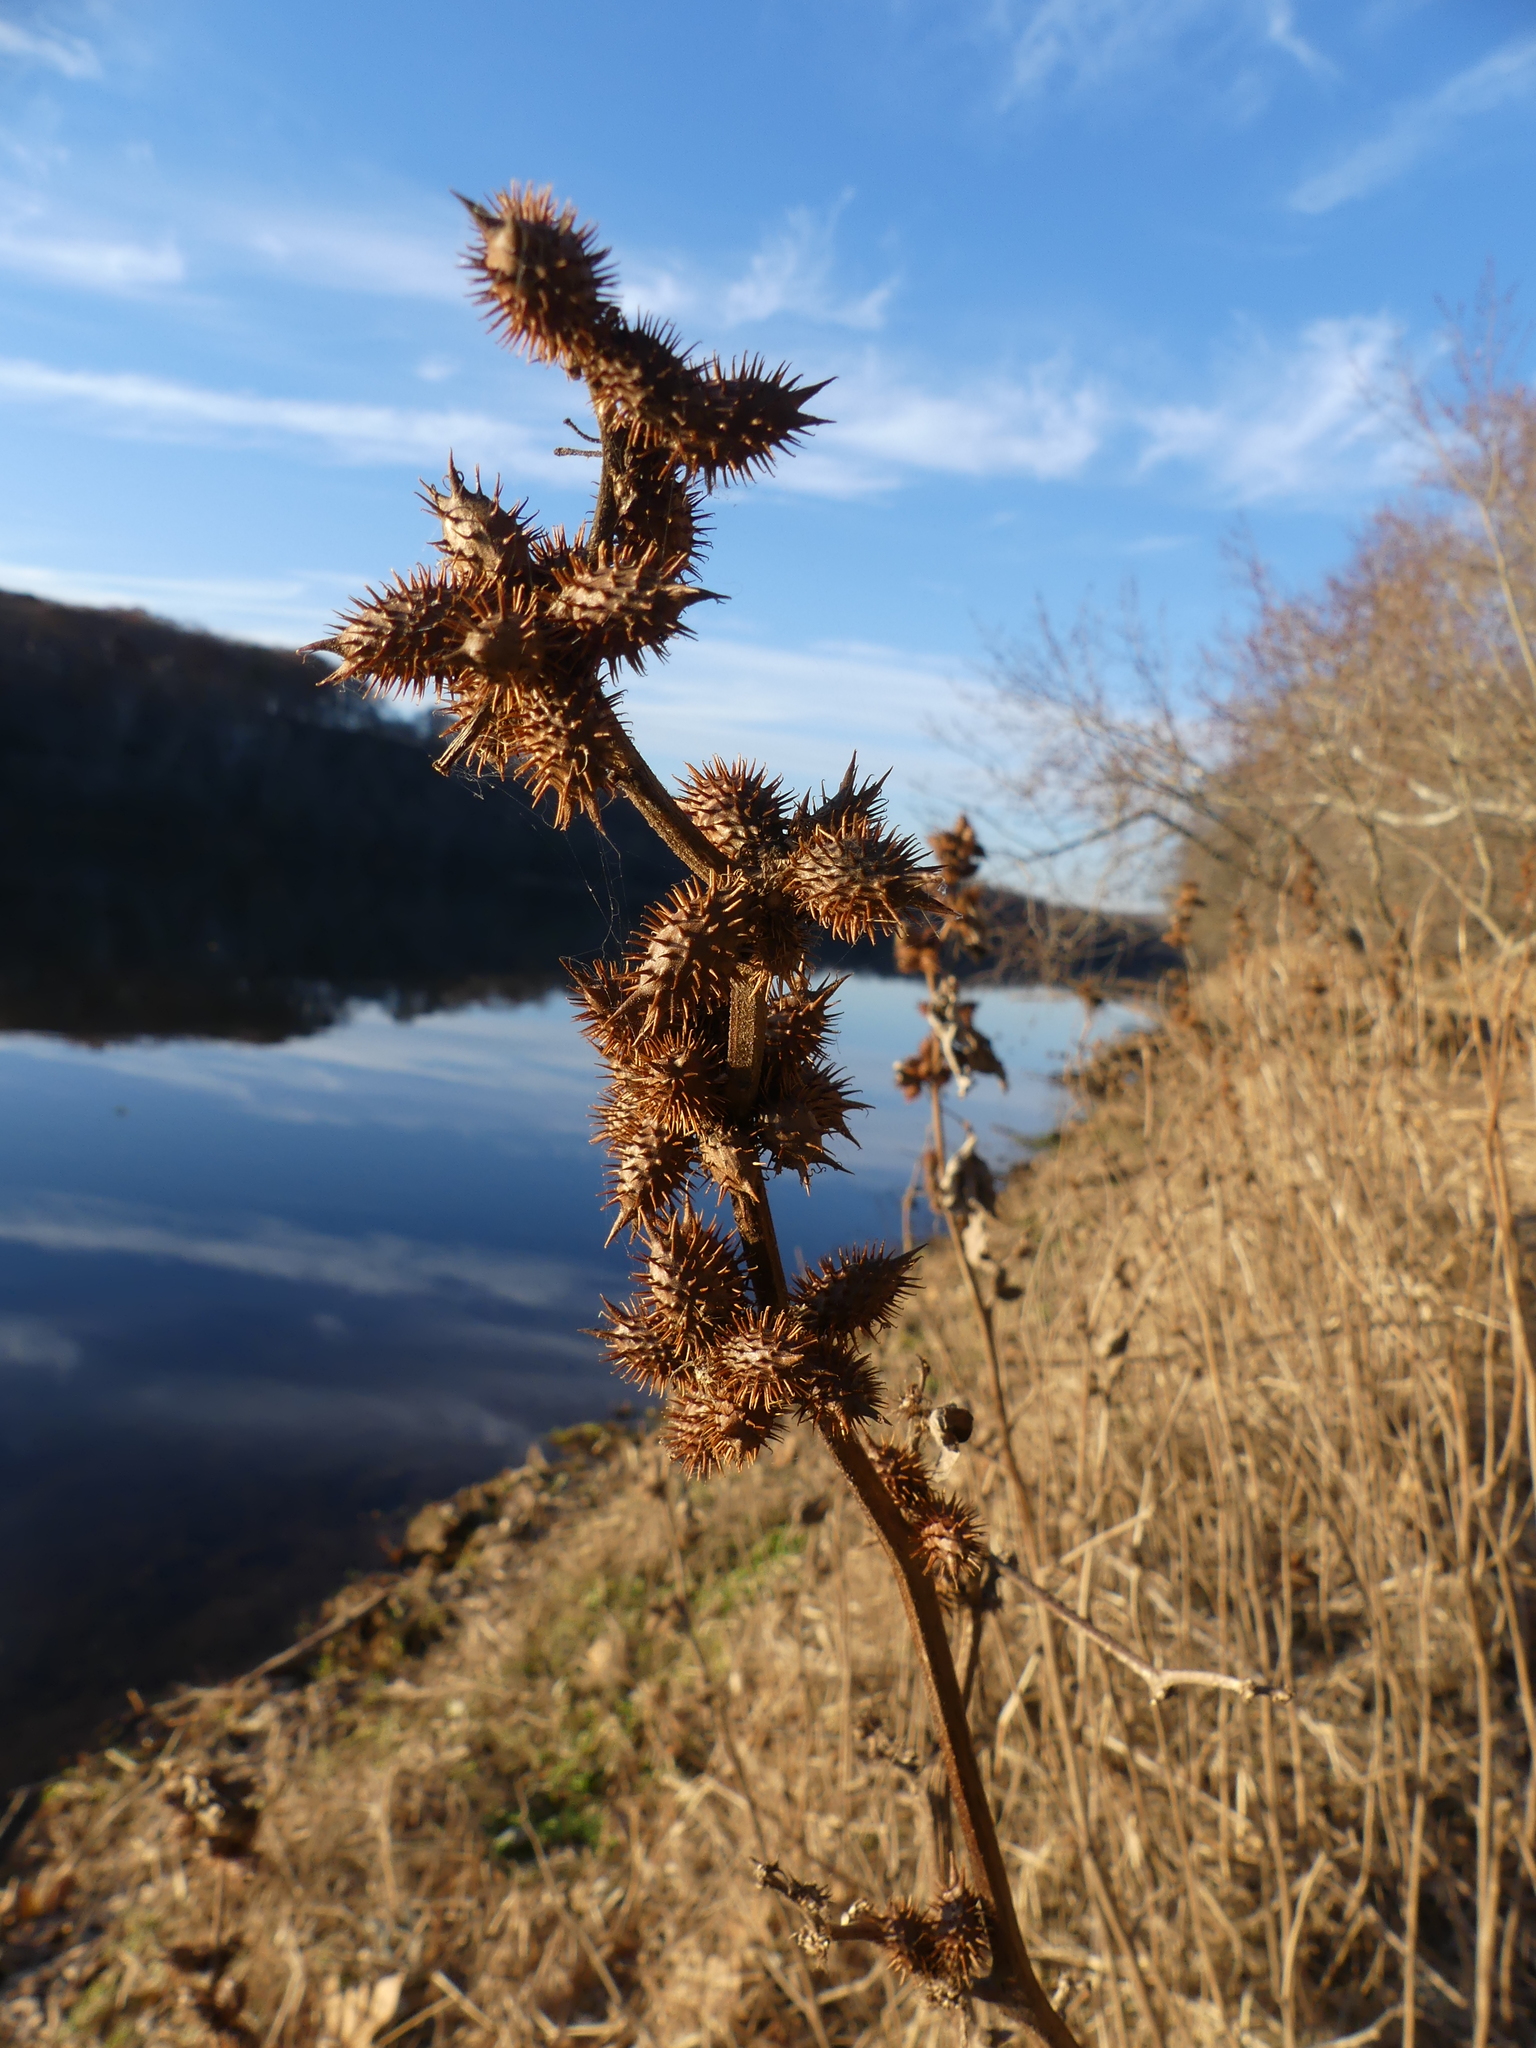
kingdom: Plantae
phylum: Tracheophyta
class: Magnoliopsida
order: Asterales
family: Asteraceae
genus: Xanthium
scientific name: Xanthium strumarium
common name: Rough cocklebur
